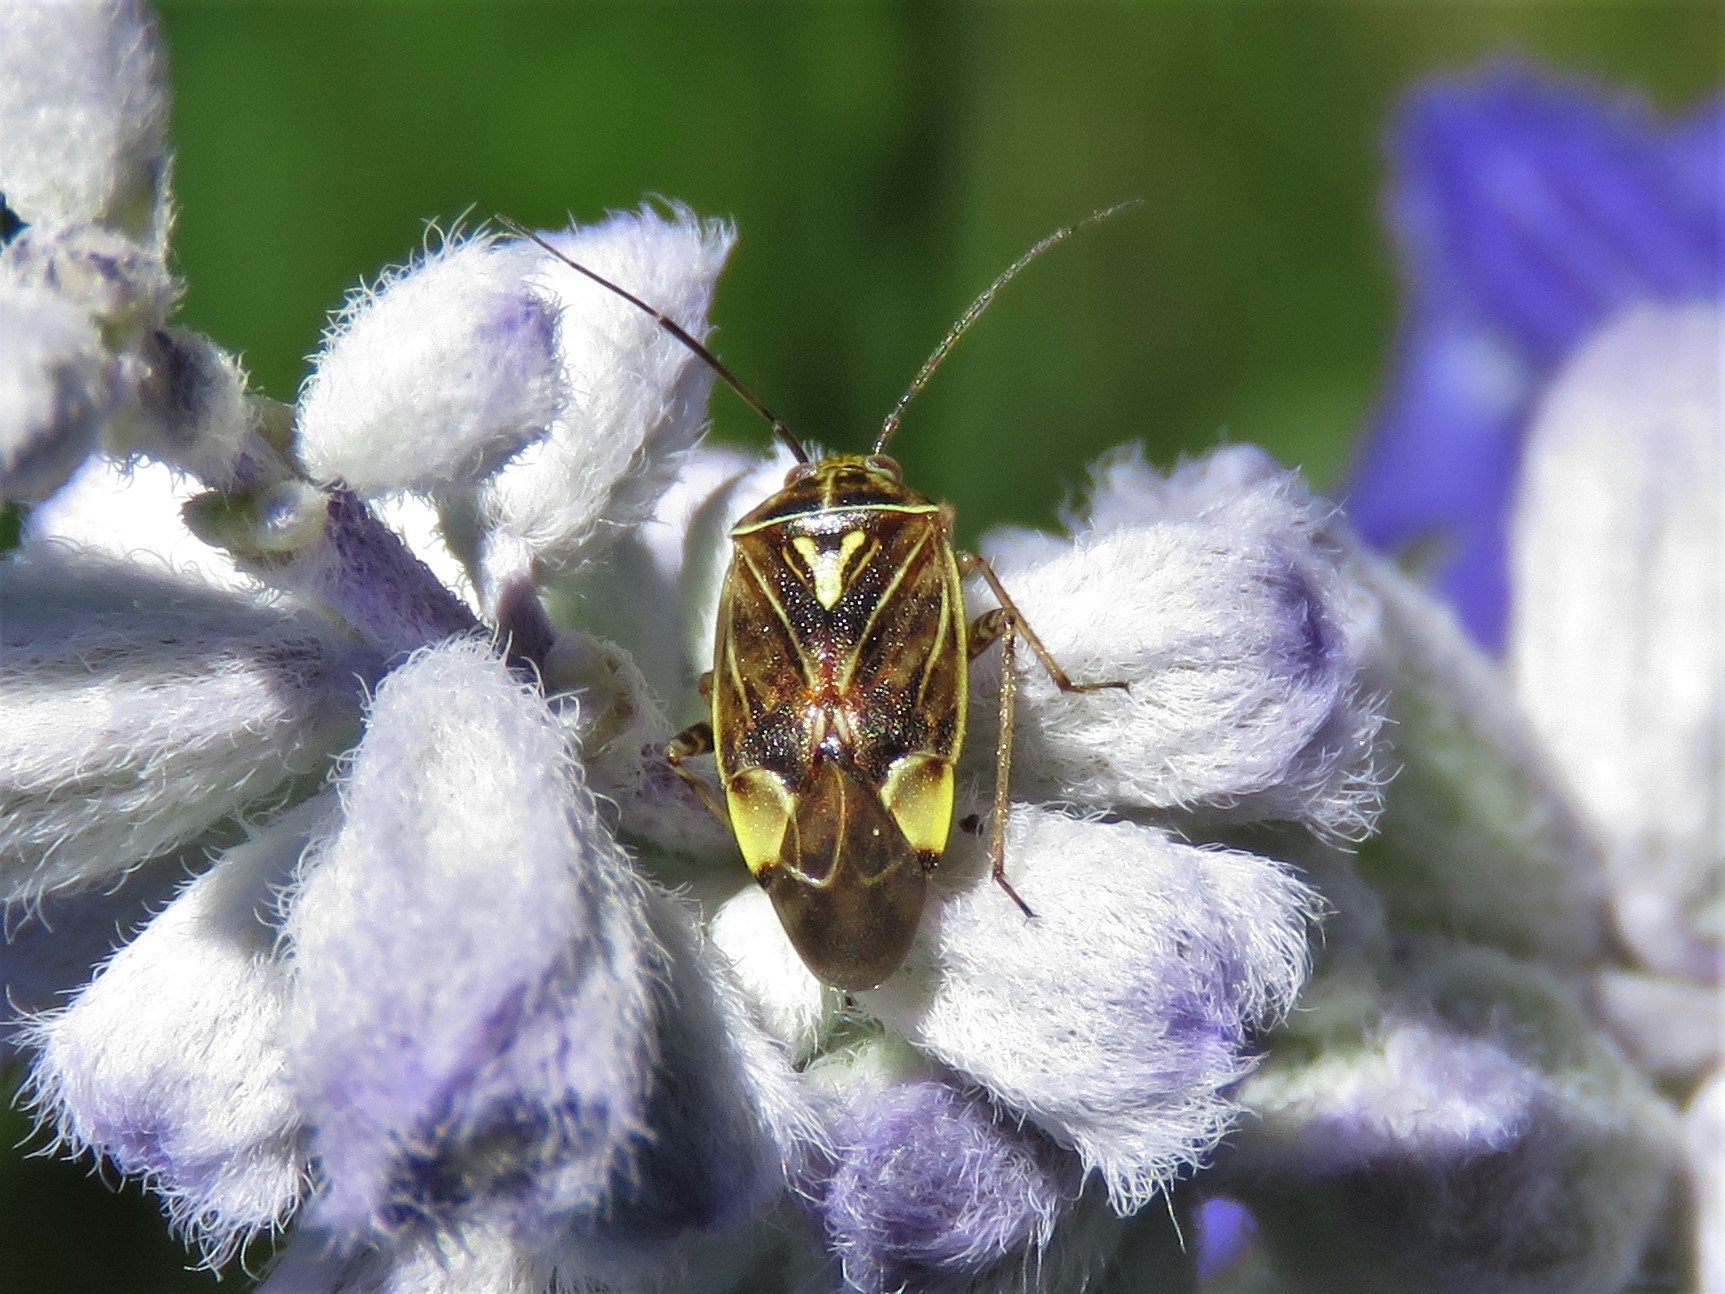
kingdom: Animalia
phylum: Arthropoda
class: Insecta
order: Hemiptera
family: Miridae
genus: Lygus
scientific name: Lygus lineolaris
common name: North american tarnished plant bug
